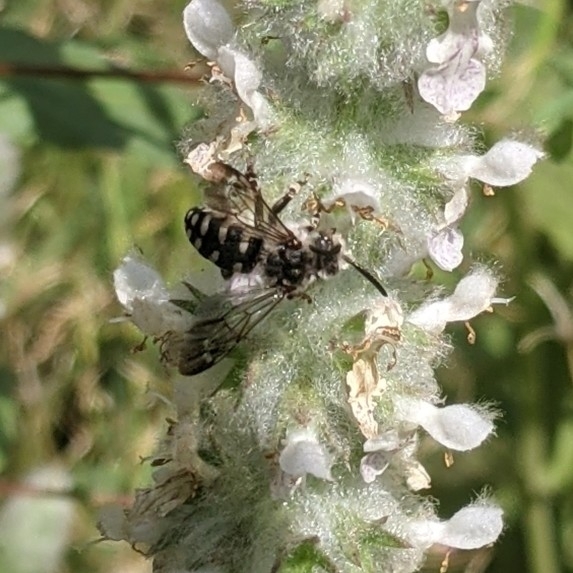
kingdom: Animalia
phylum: Arthropoda
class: Insecta
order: Hymenoptera
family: Apidae
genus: Brachymelecta
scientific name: Brachymelecta californica
